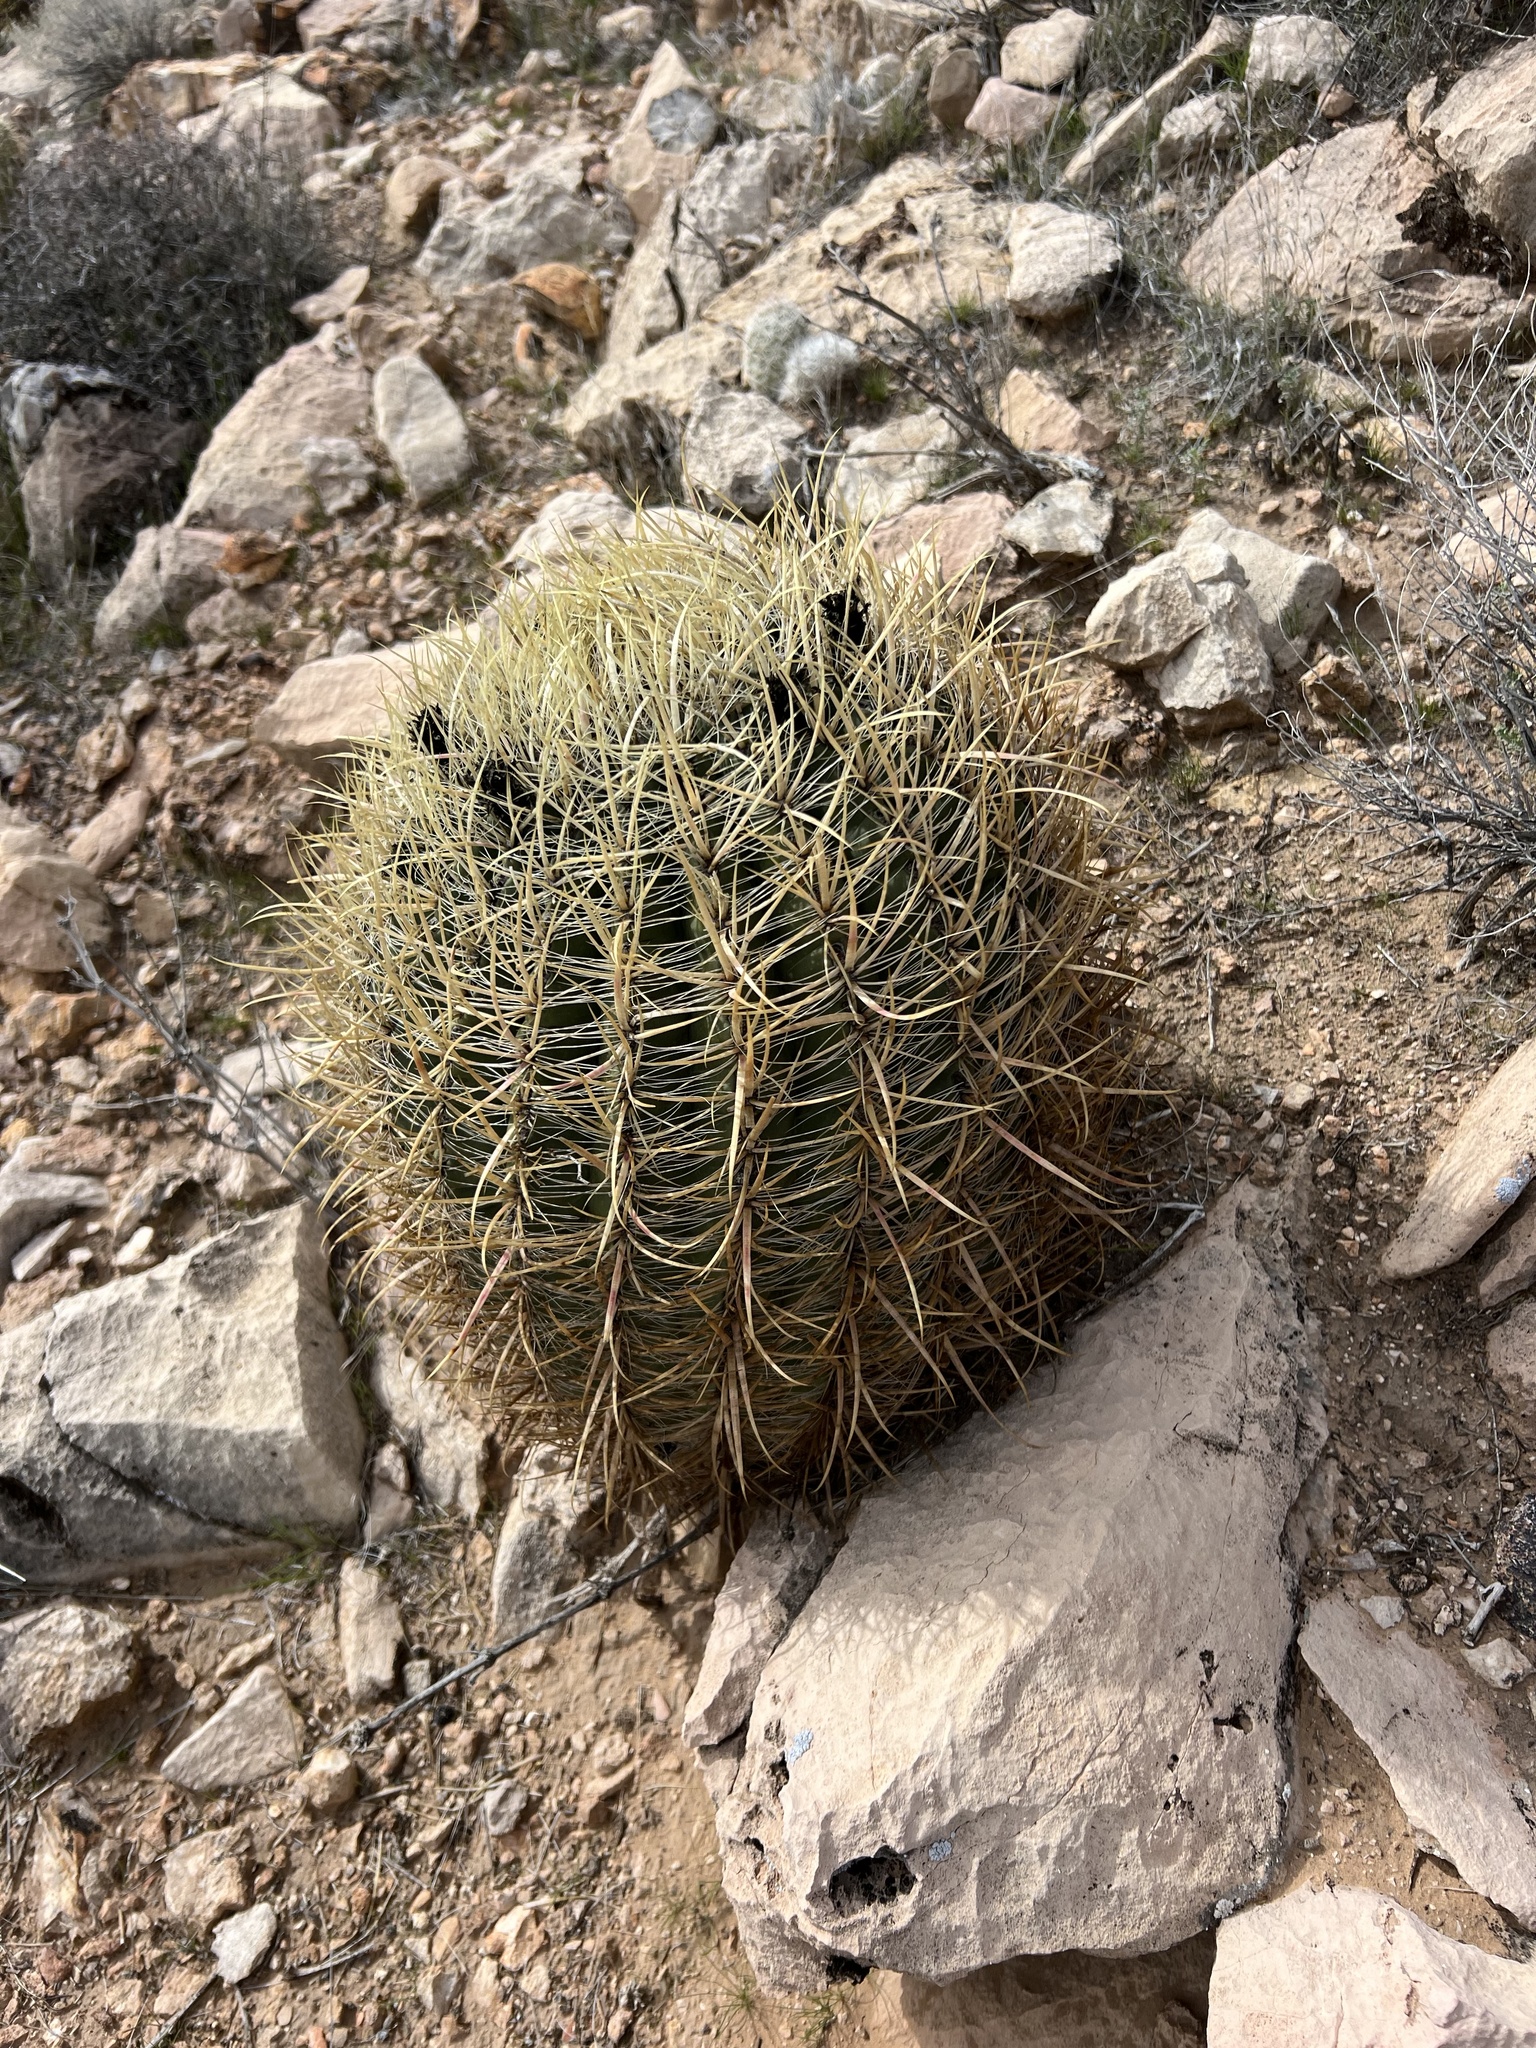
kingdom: Plantae
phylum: Tracheophyta
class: Magnoliopsida
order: Caryophyllales
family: Cactaceae
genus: Ferocactus
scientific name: Ferocactus cylindraceus
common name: California barrel cactus
